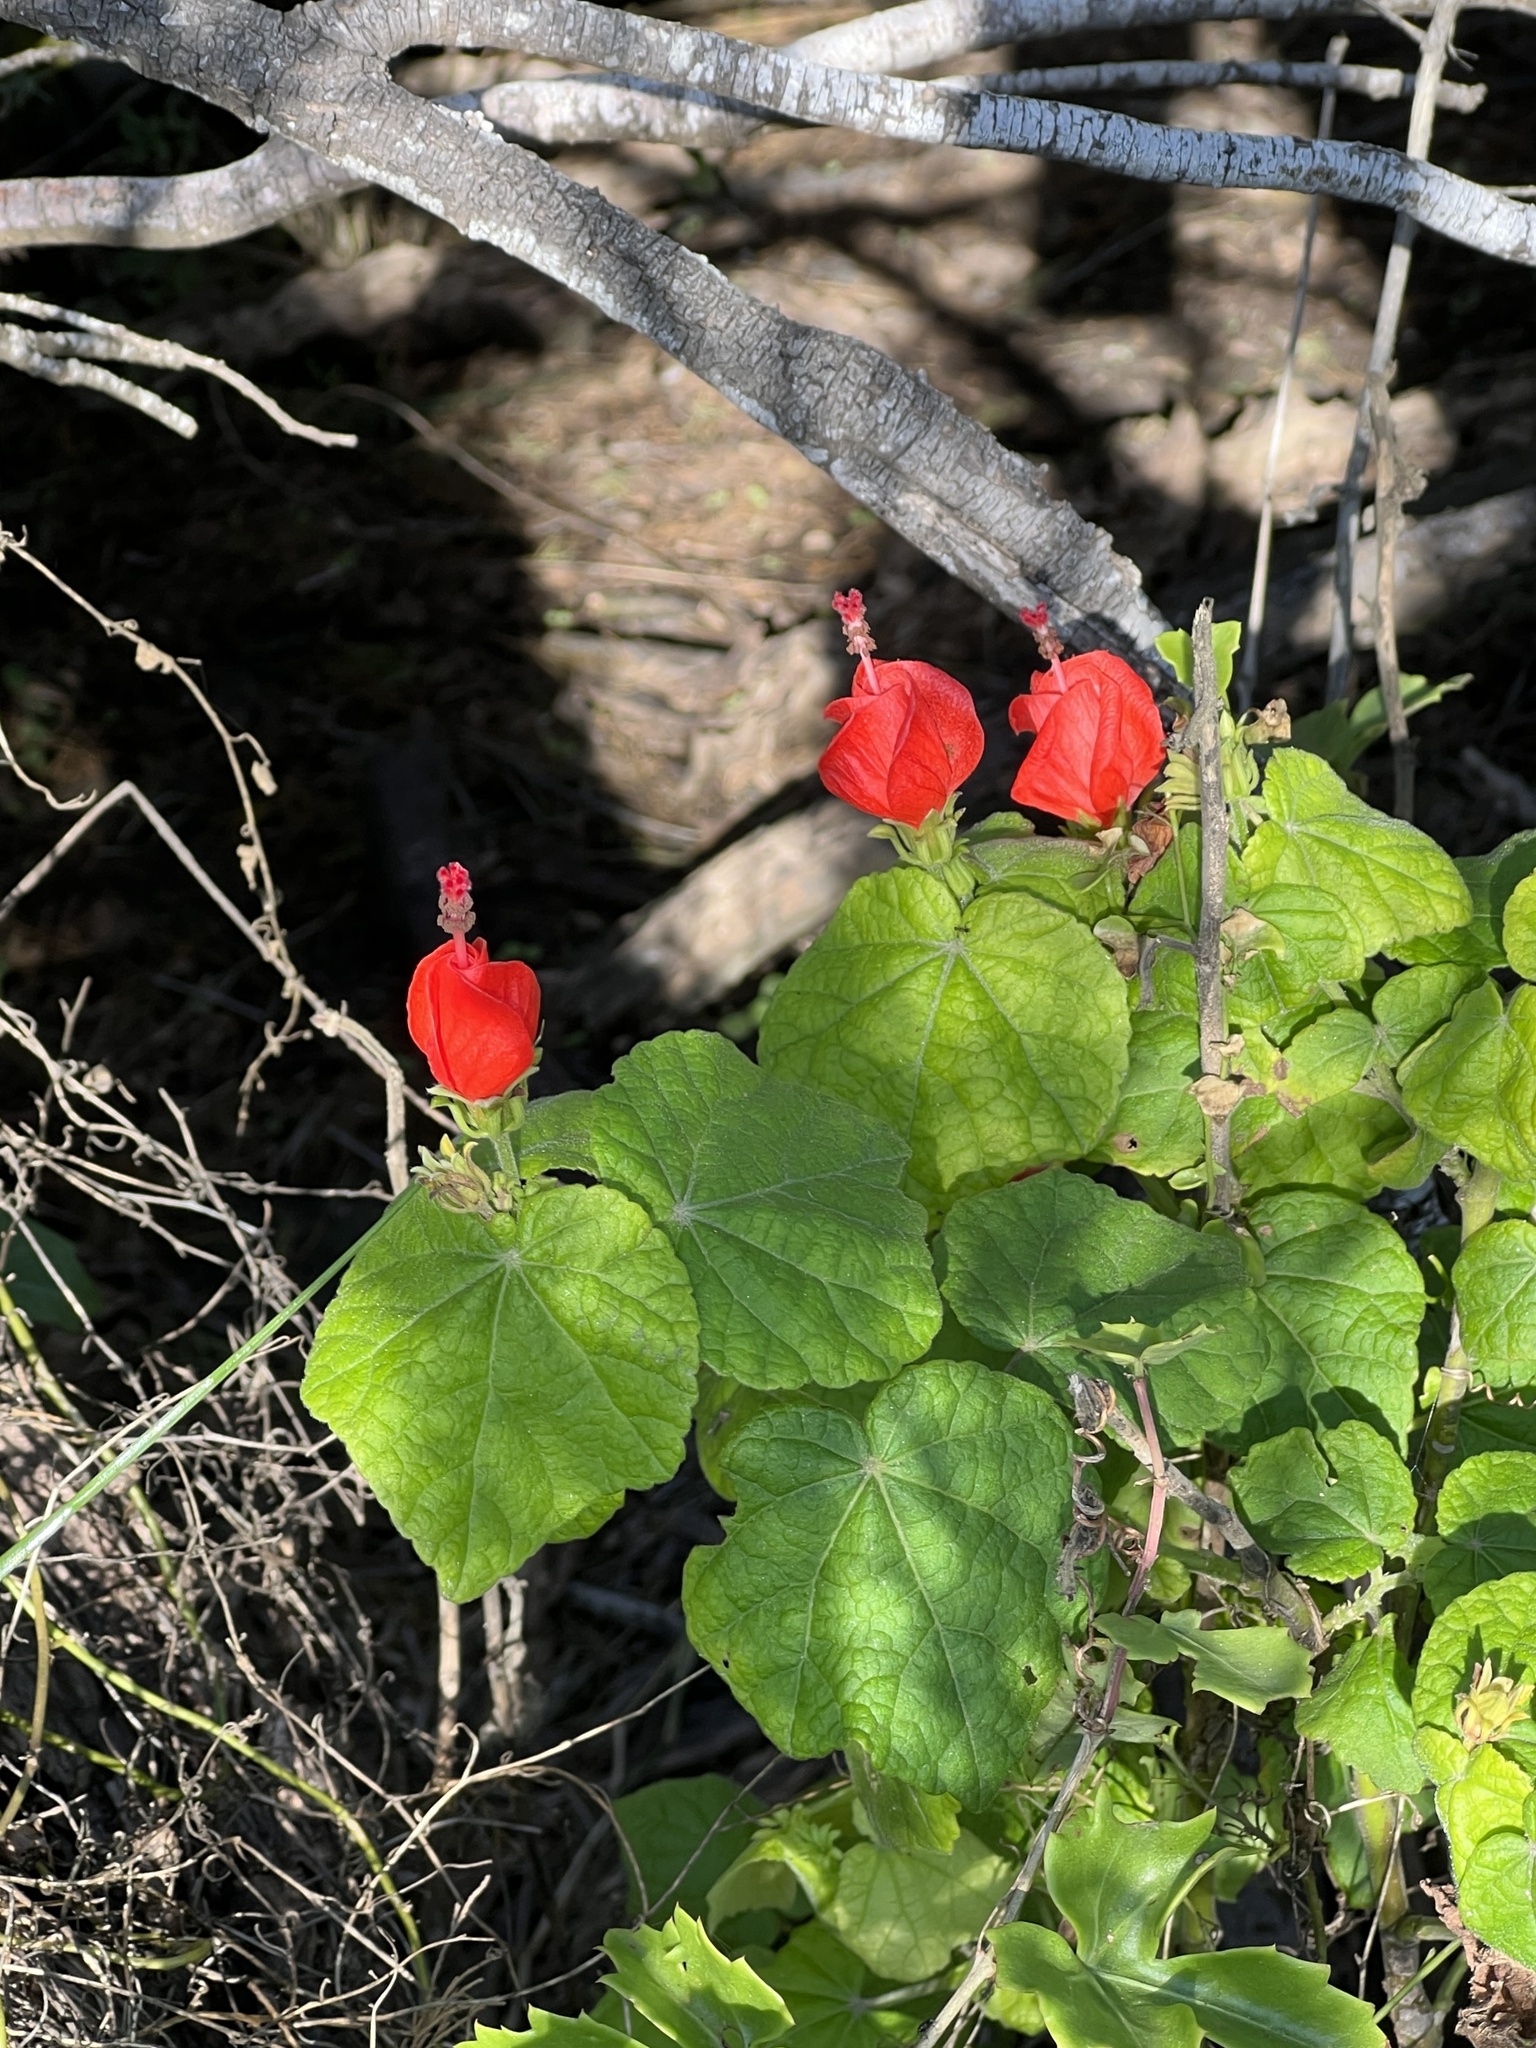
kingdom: Plantae
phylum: Tracheophyta
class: Magnoliopsida
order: Malvales
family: Malvaceae
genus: Malvaviscus
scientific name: Malvaviscus arboreus
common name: Wax mallow
